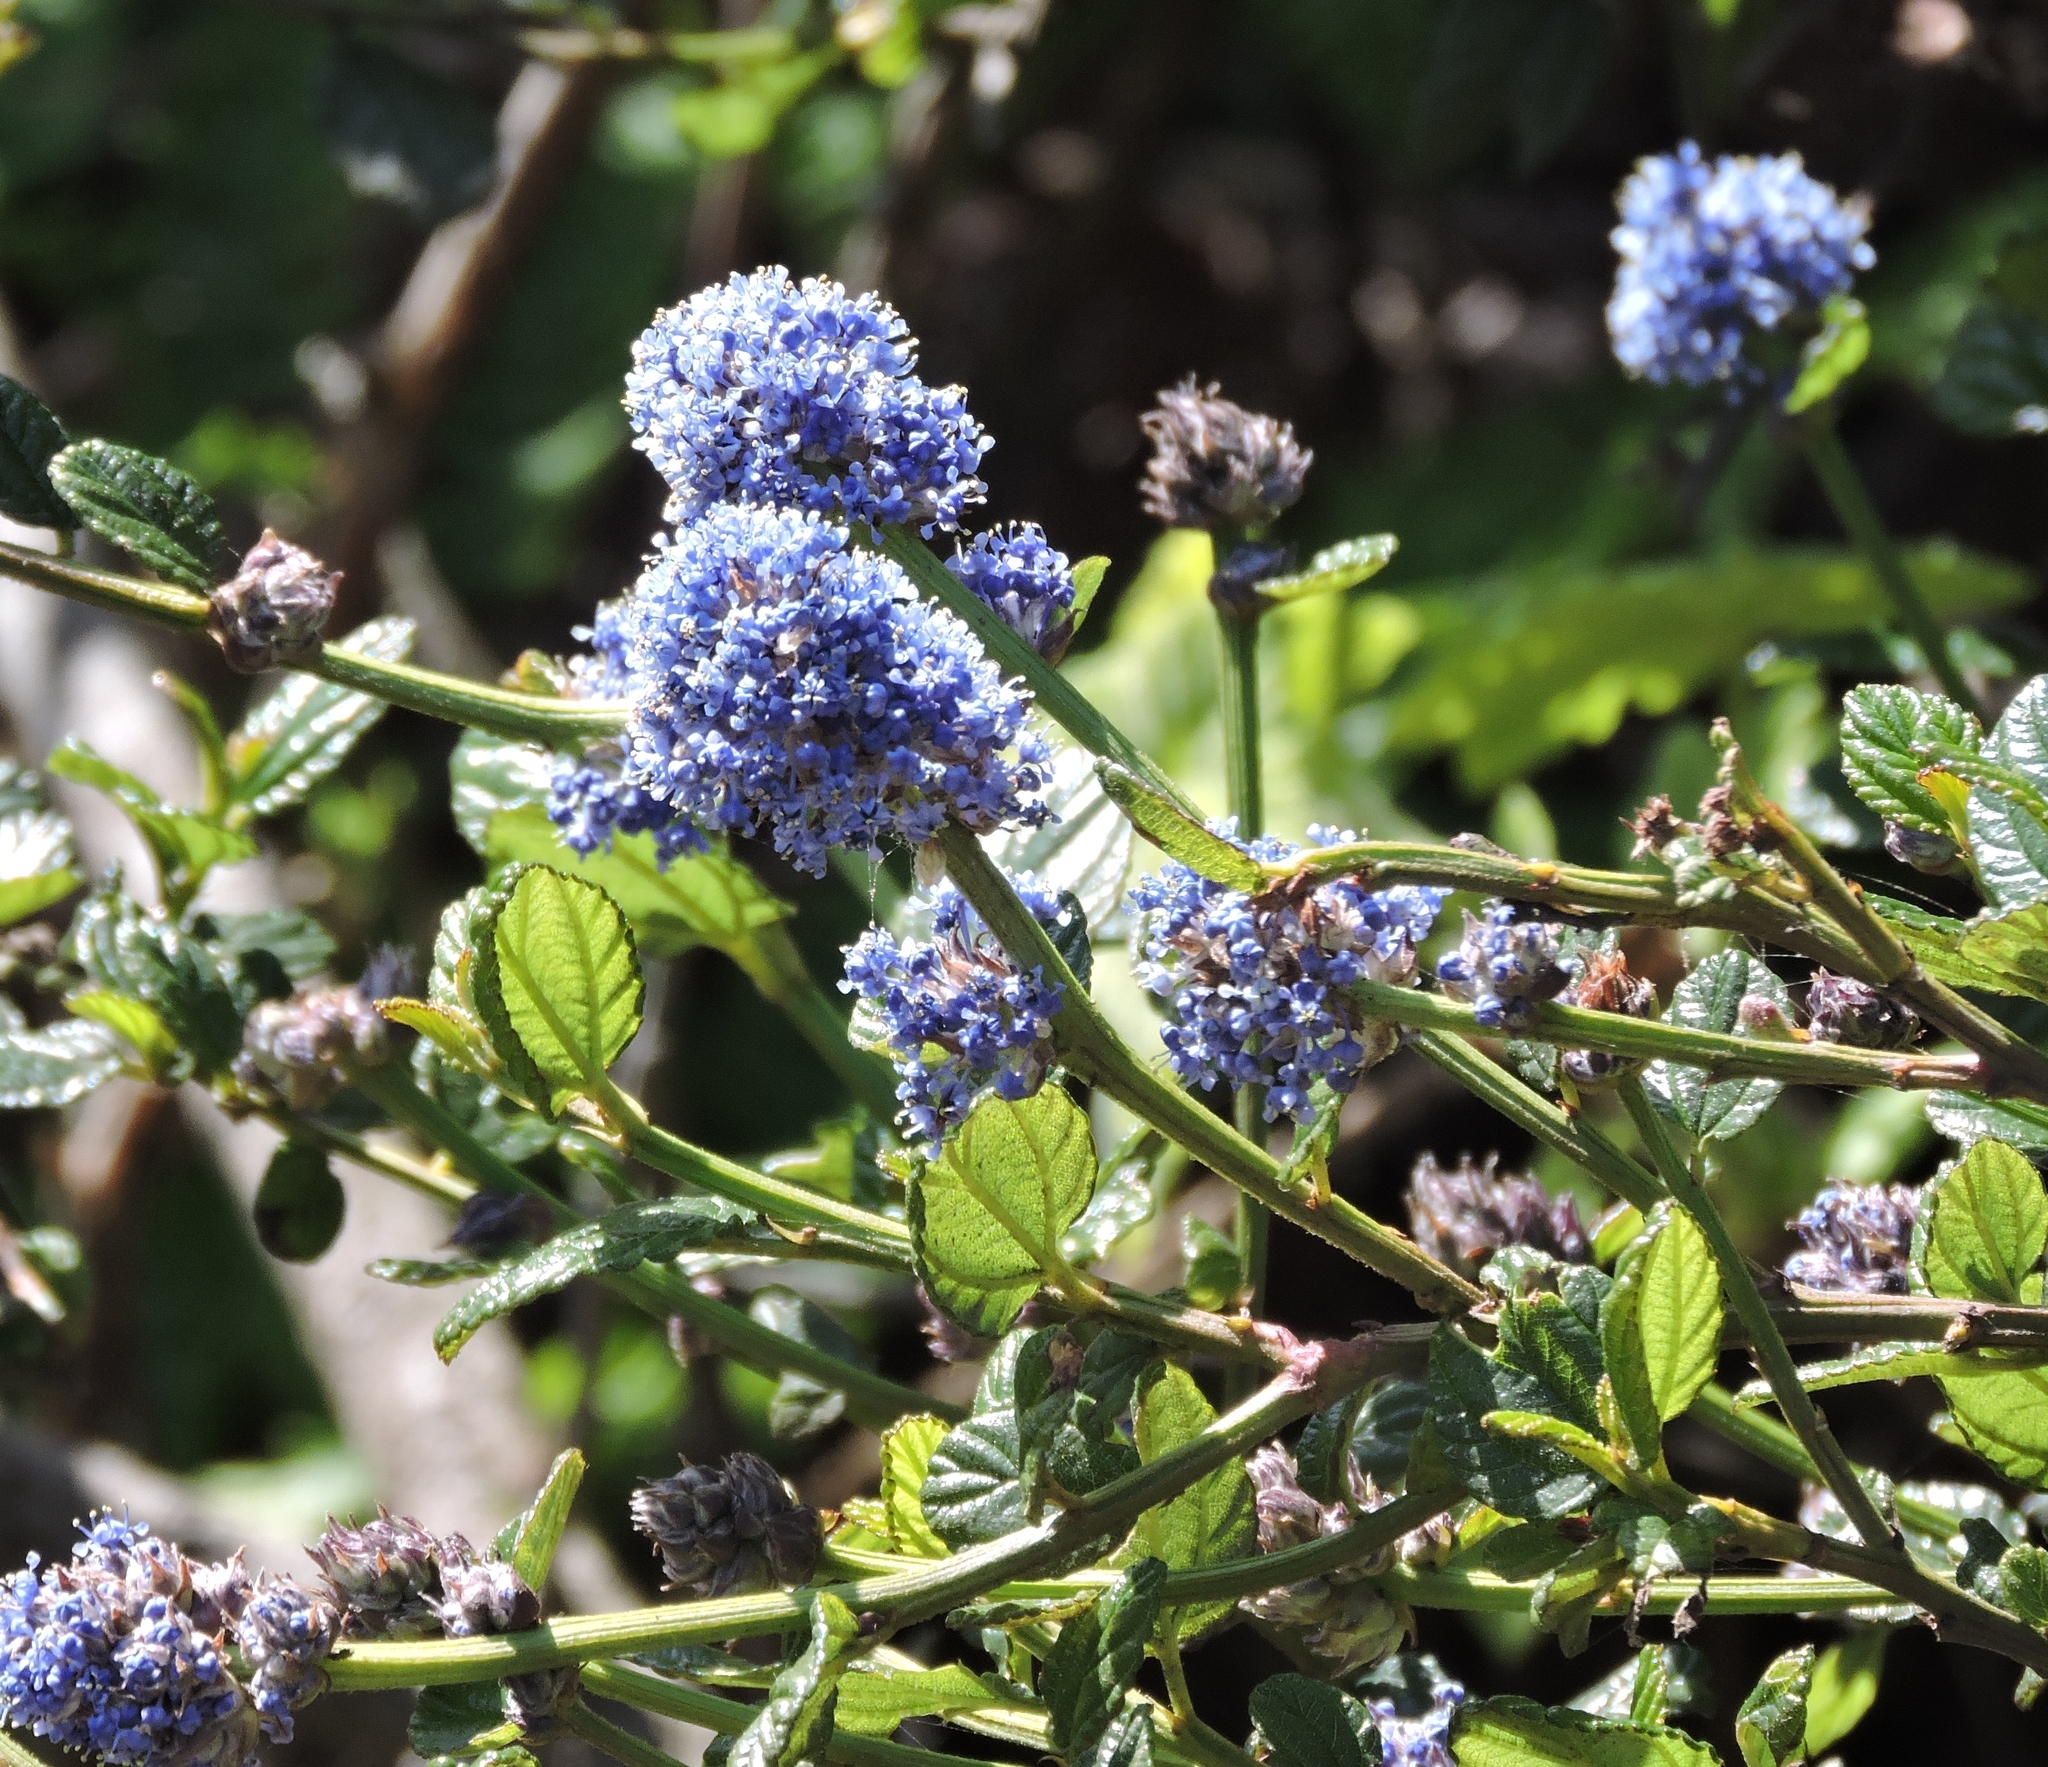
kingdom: Plantae
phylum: Tracheophyta
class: Magnoliopsida
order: Rosales
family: Rhamnaceae
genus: Ceanothus
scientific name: Ceanothus thyrsiflorus
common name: California-lilac
